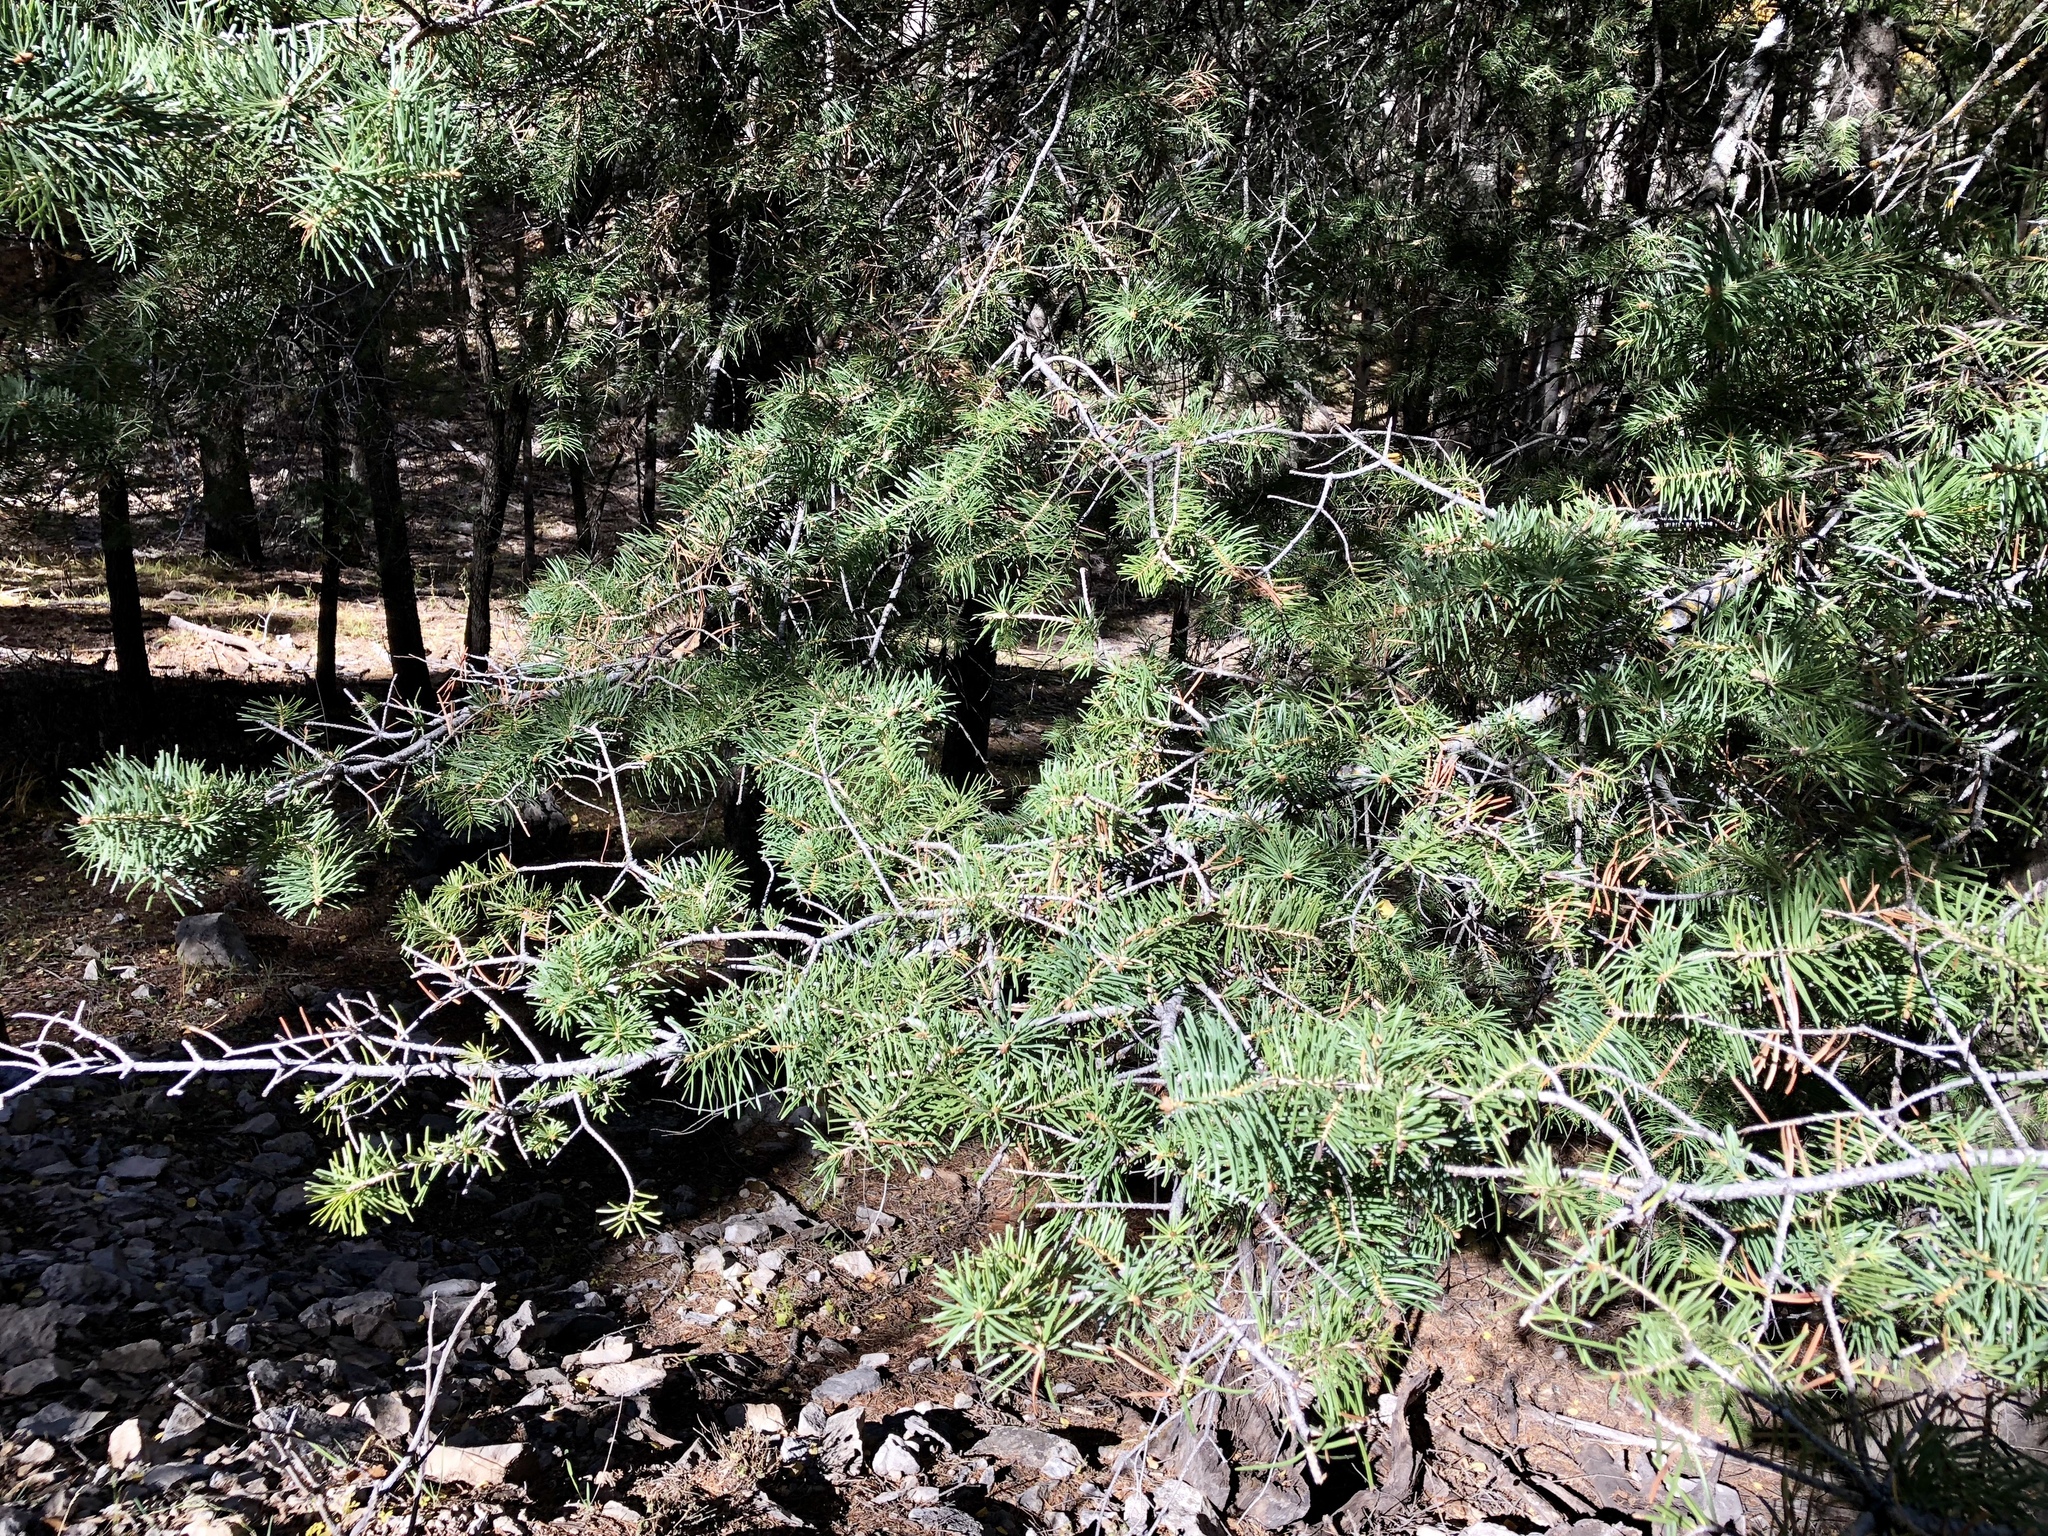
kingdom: Plantae
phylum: Tracheophyta
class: Pinopsida
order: Pinales
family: Pinaceae
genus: Pseudotsuga
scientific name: Pseudotsuga menziesii
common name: Douglas fir
